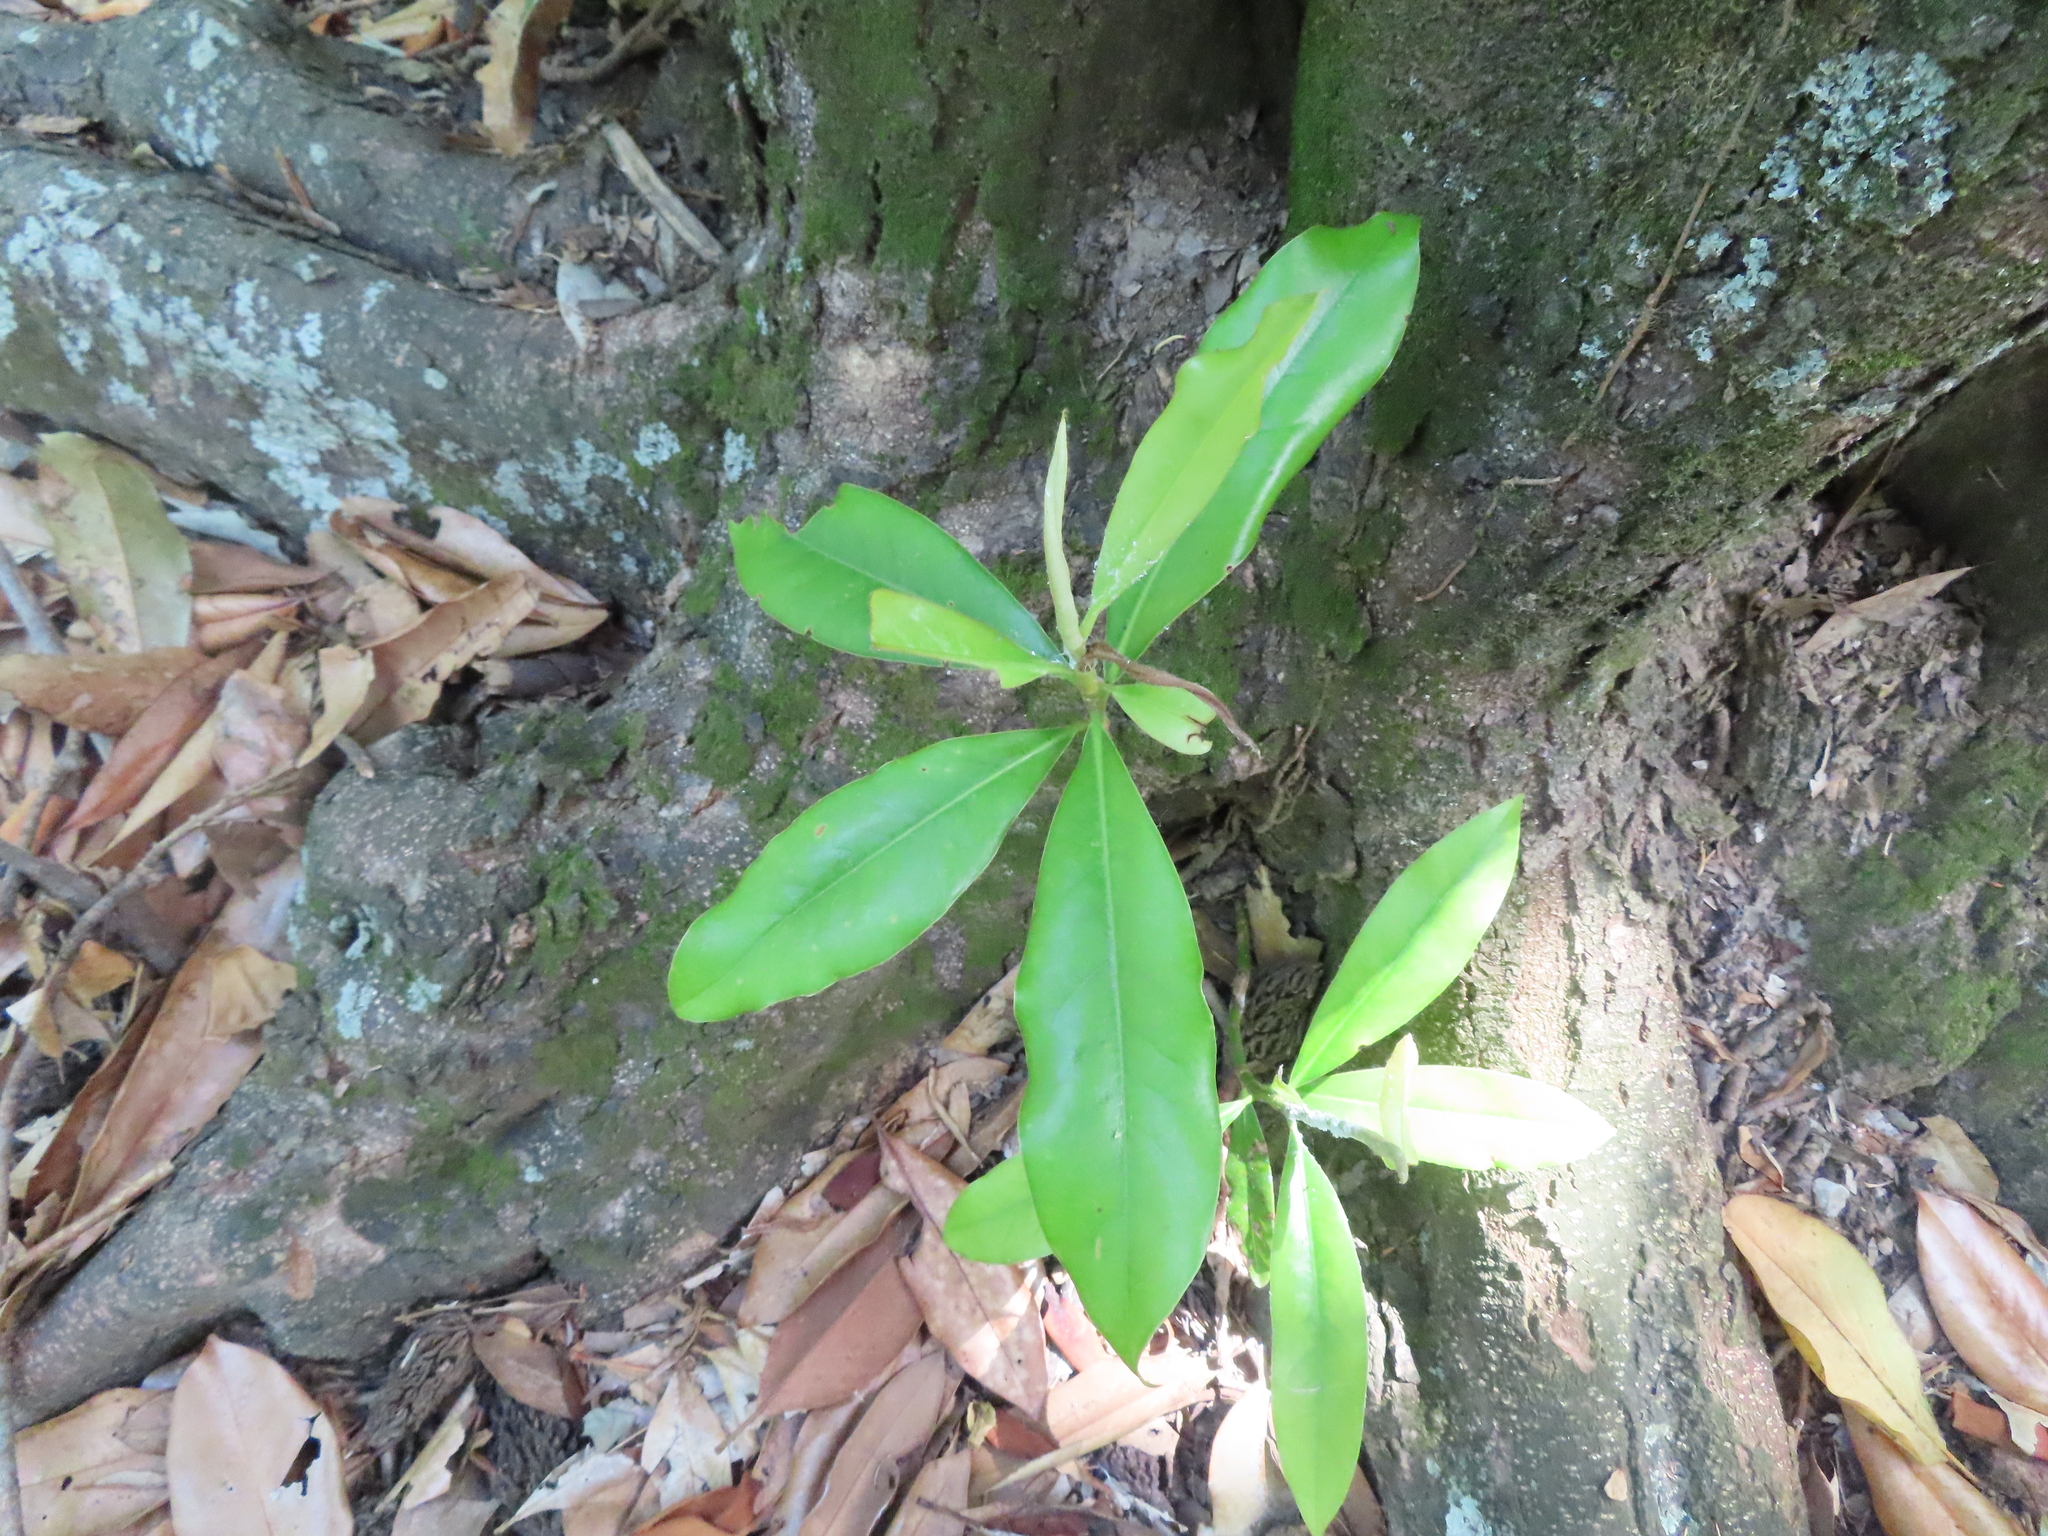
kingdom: Plantae
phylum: Tracheophyta
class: Magnoliopsida
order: Magnoliales
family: Magnoliaceae
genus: Magnolia
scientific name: Magnolia grandiflora
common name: Southern magnolia
